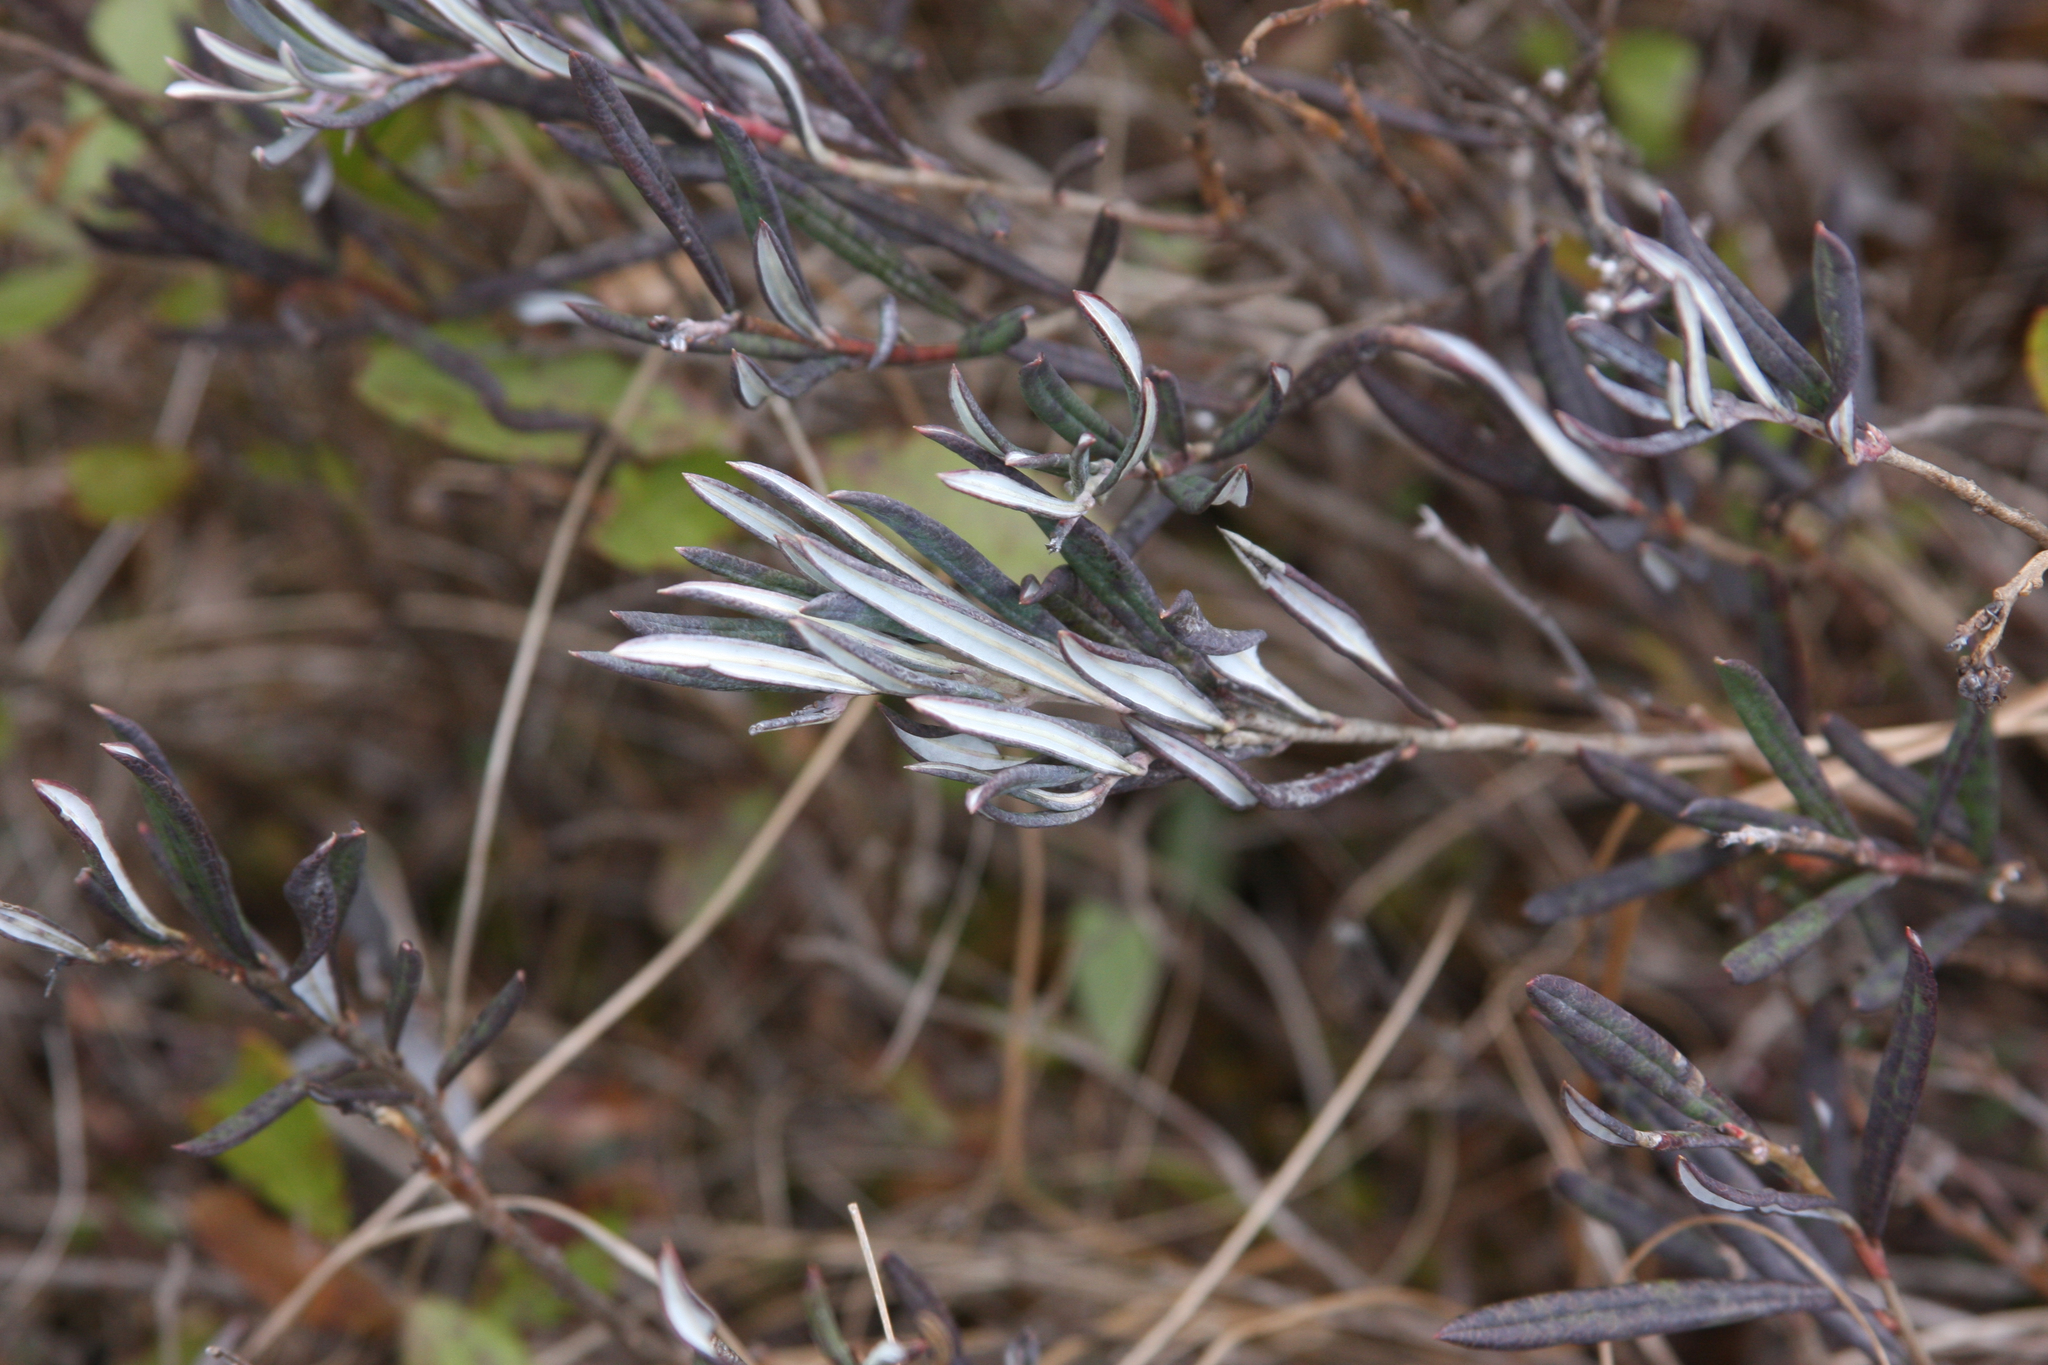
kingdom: Plantae
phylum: Tracheophyta
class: Magnoliopsida
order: Ericales
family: Ericaceae
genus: Andromeda
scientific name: Andromeda polifolia
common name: Bog-rosemary
